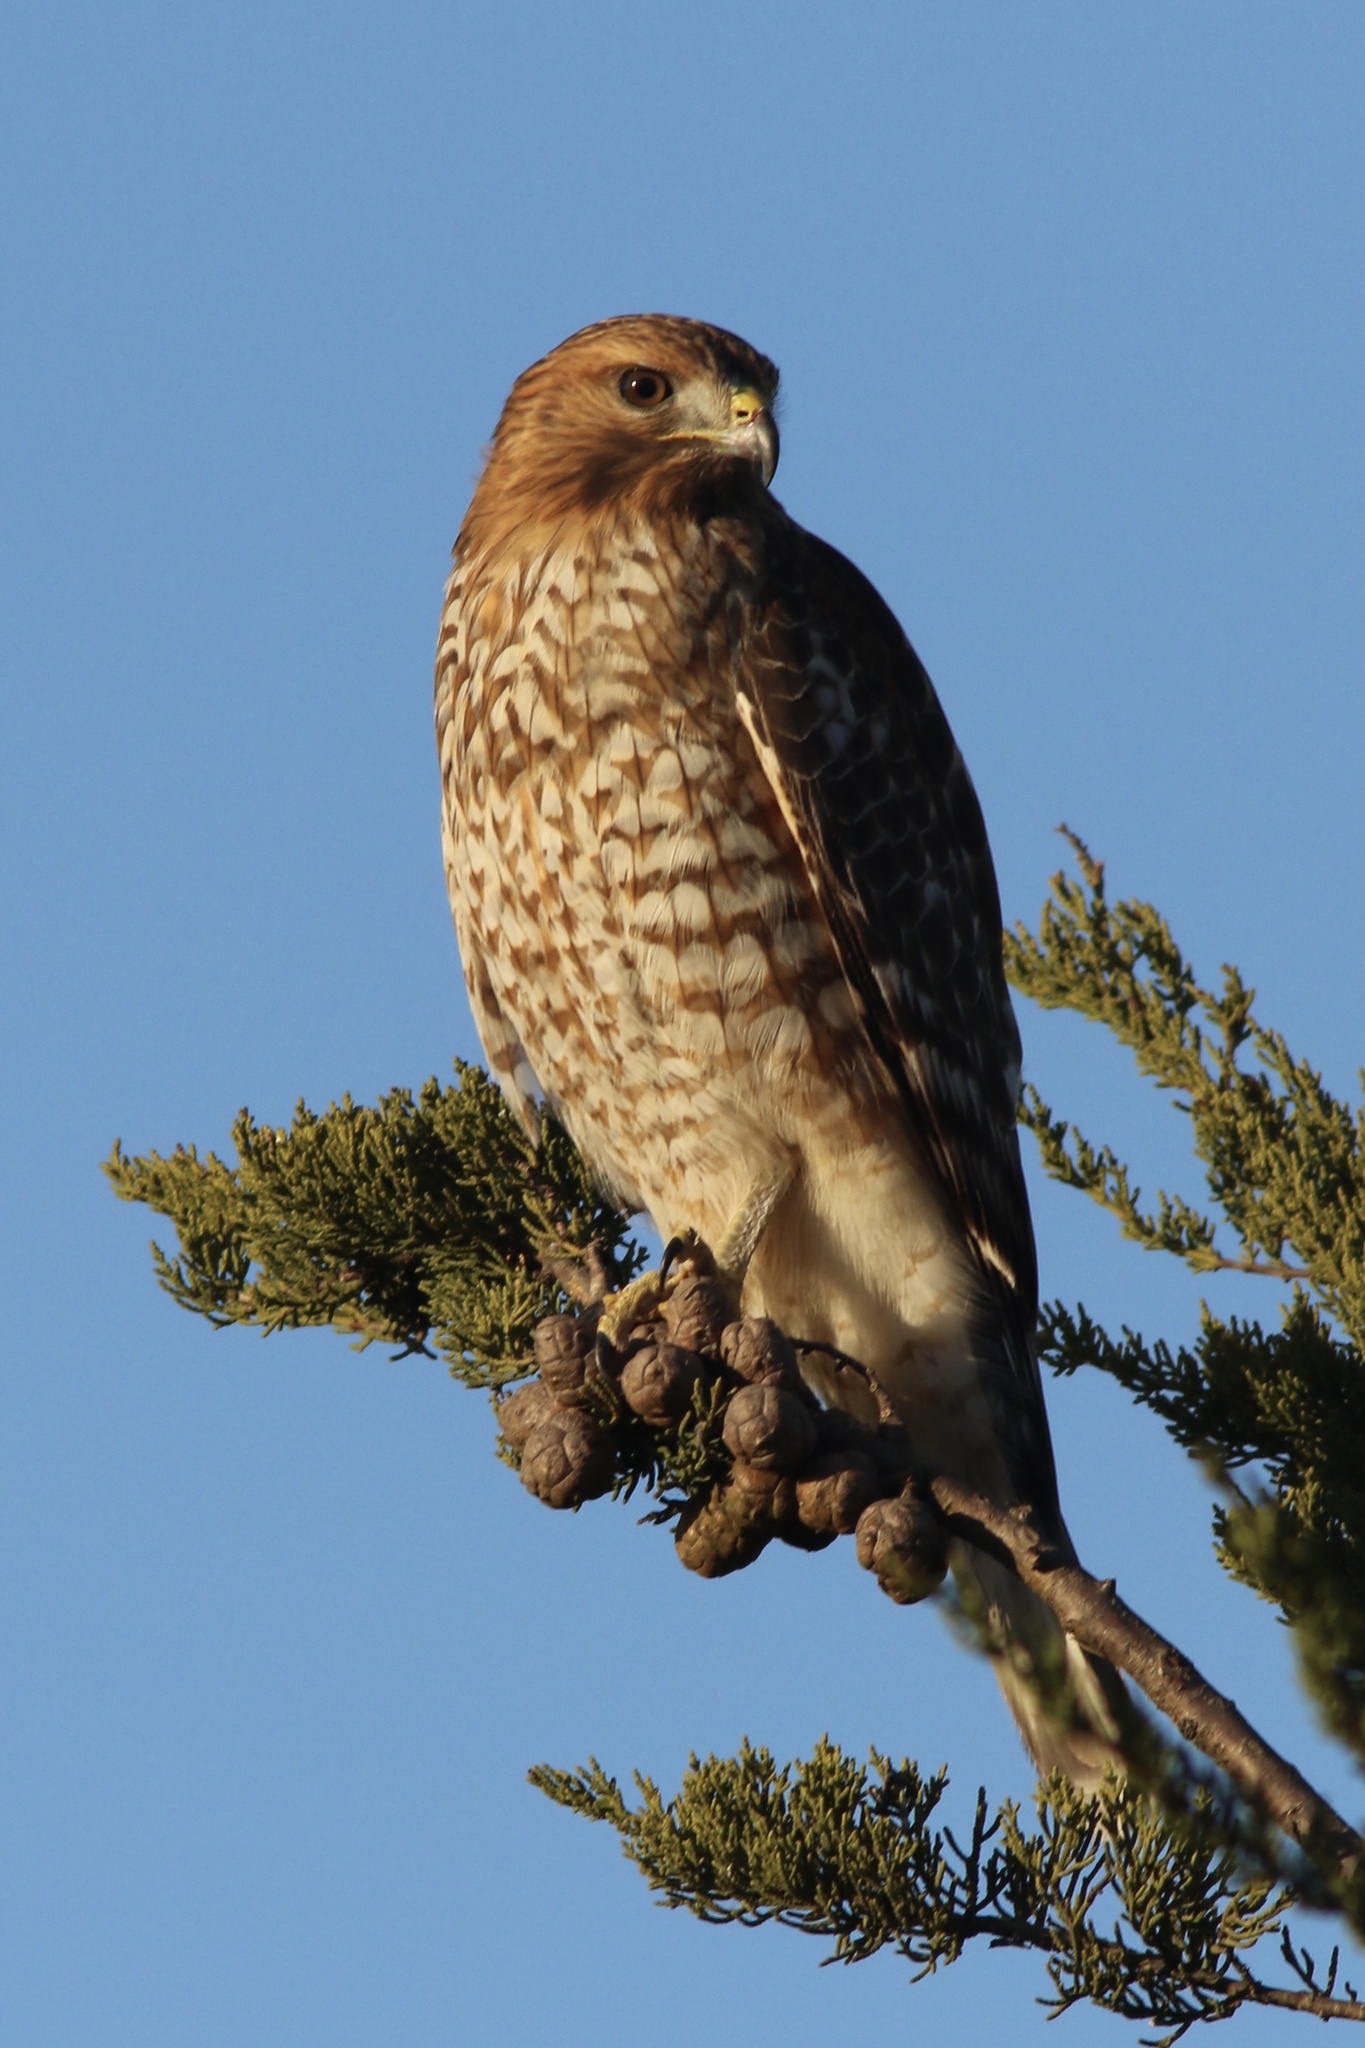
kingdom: Animalia
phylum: Chordata
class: Aves
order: Accipitriformes
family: Accipitridae
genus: Buteo
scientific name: Buteo lineatus
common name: Red-shouldered hawk
